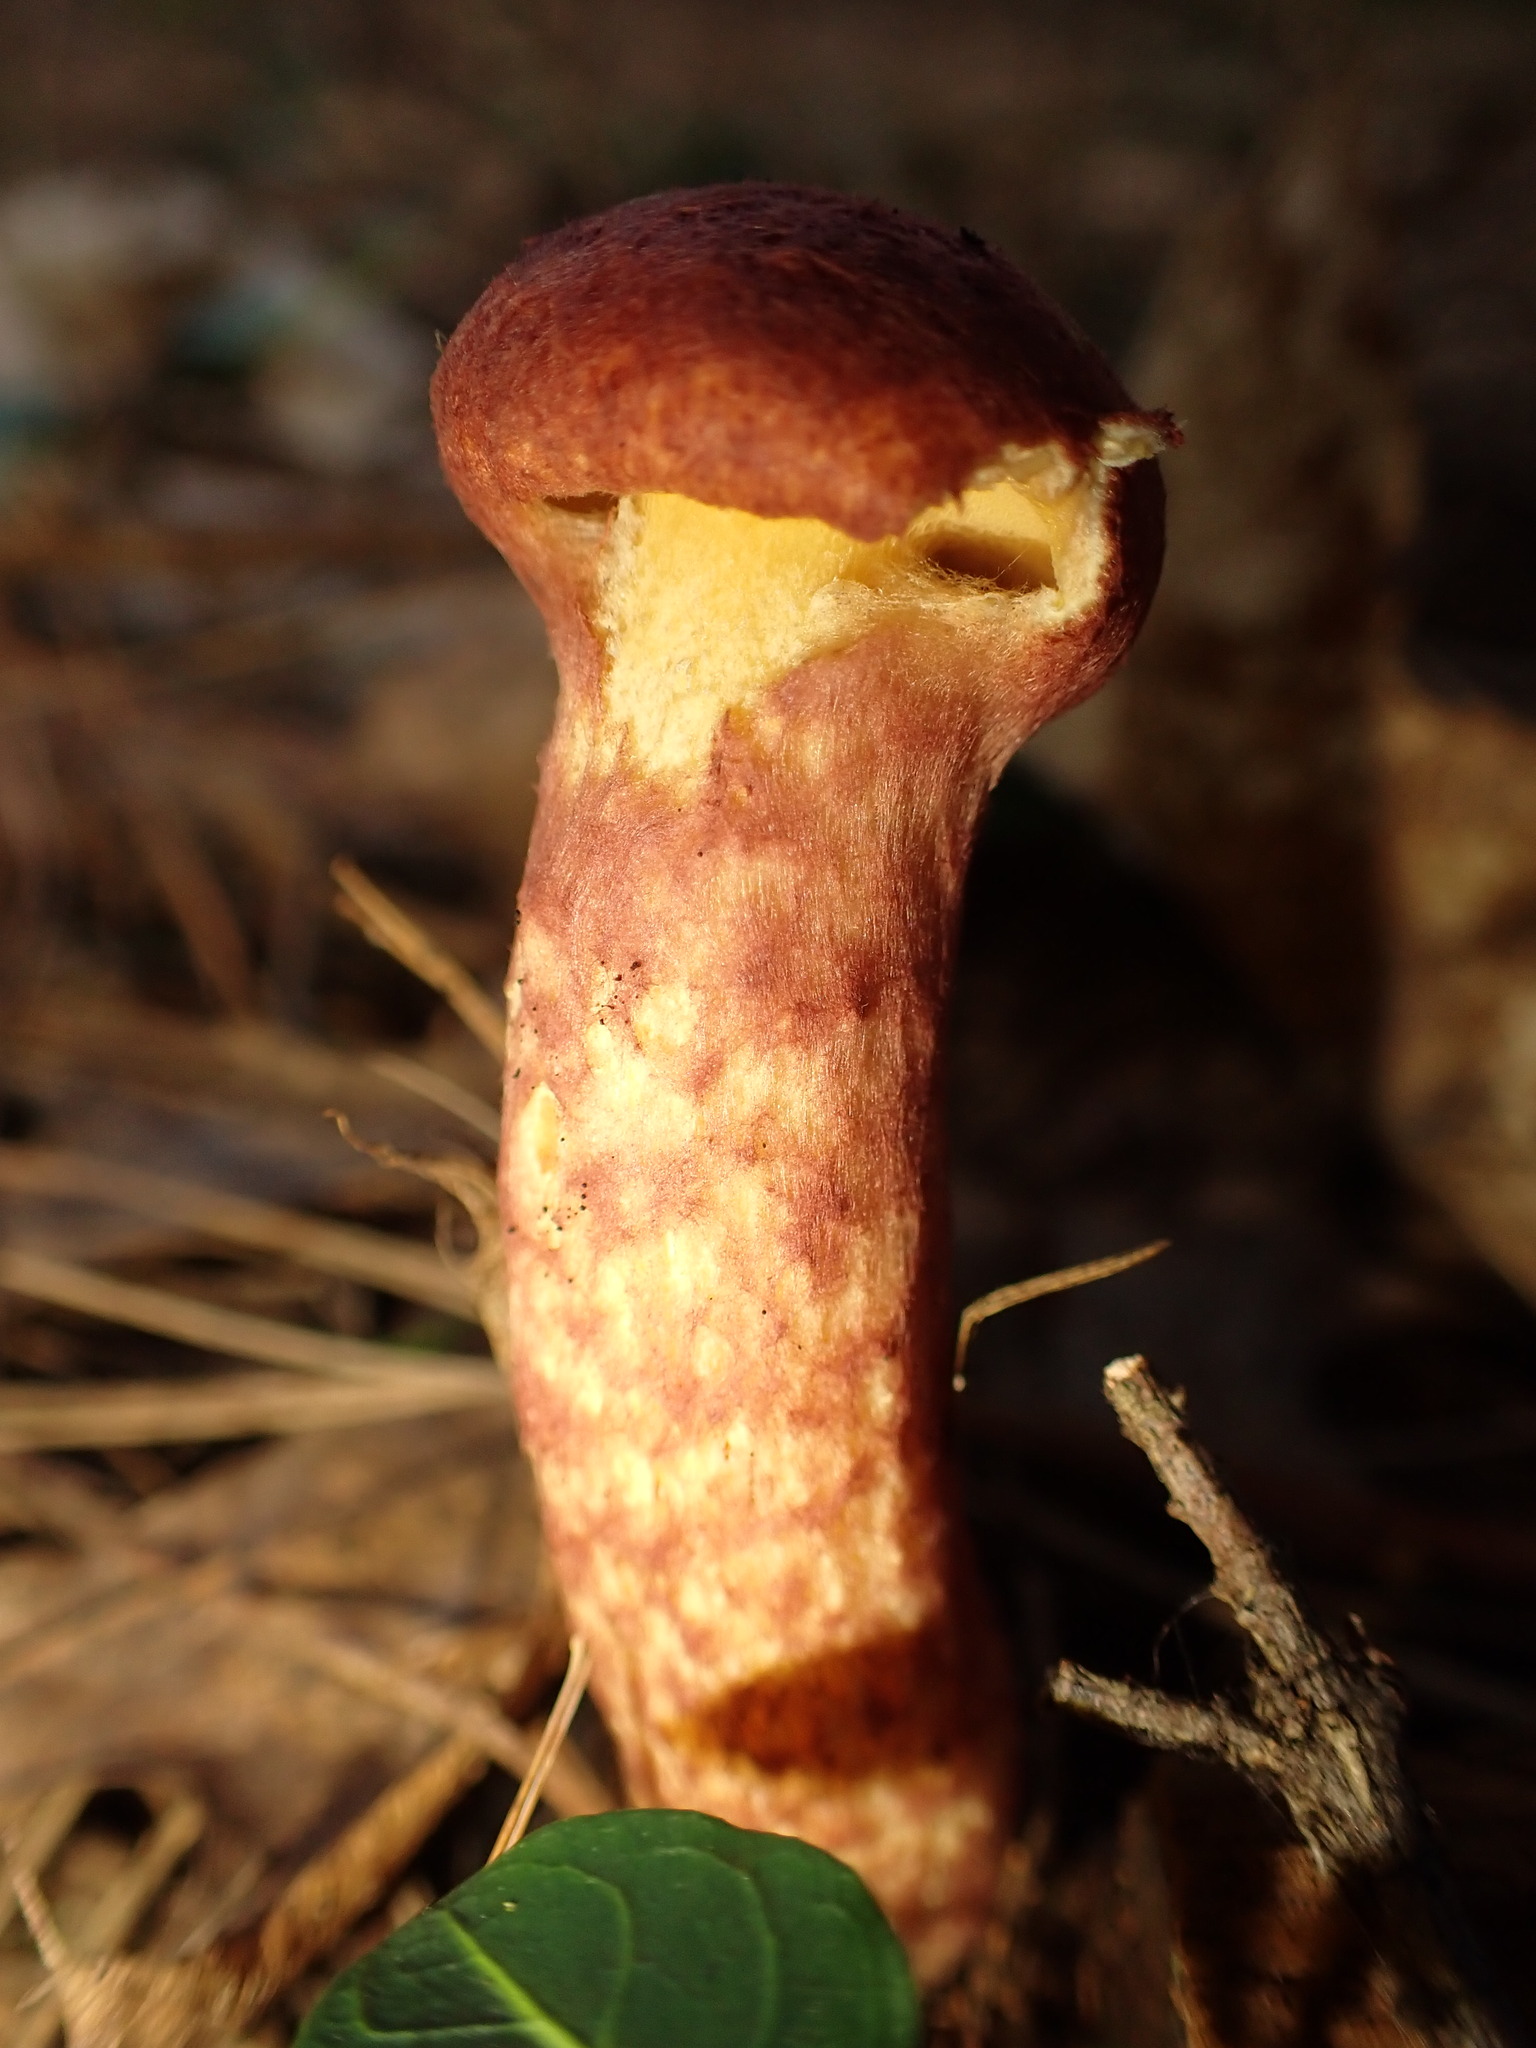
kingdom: Fungi
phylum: Basidiomycota
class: Agaricomycetes
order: Boletales
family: Suillaceae
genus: Suillus
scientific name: Suillus spraguei
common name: Painted suillus
